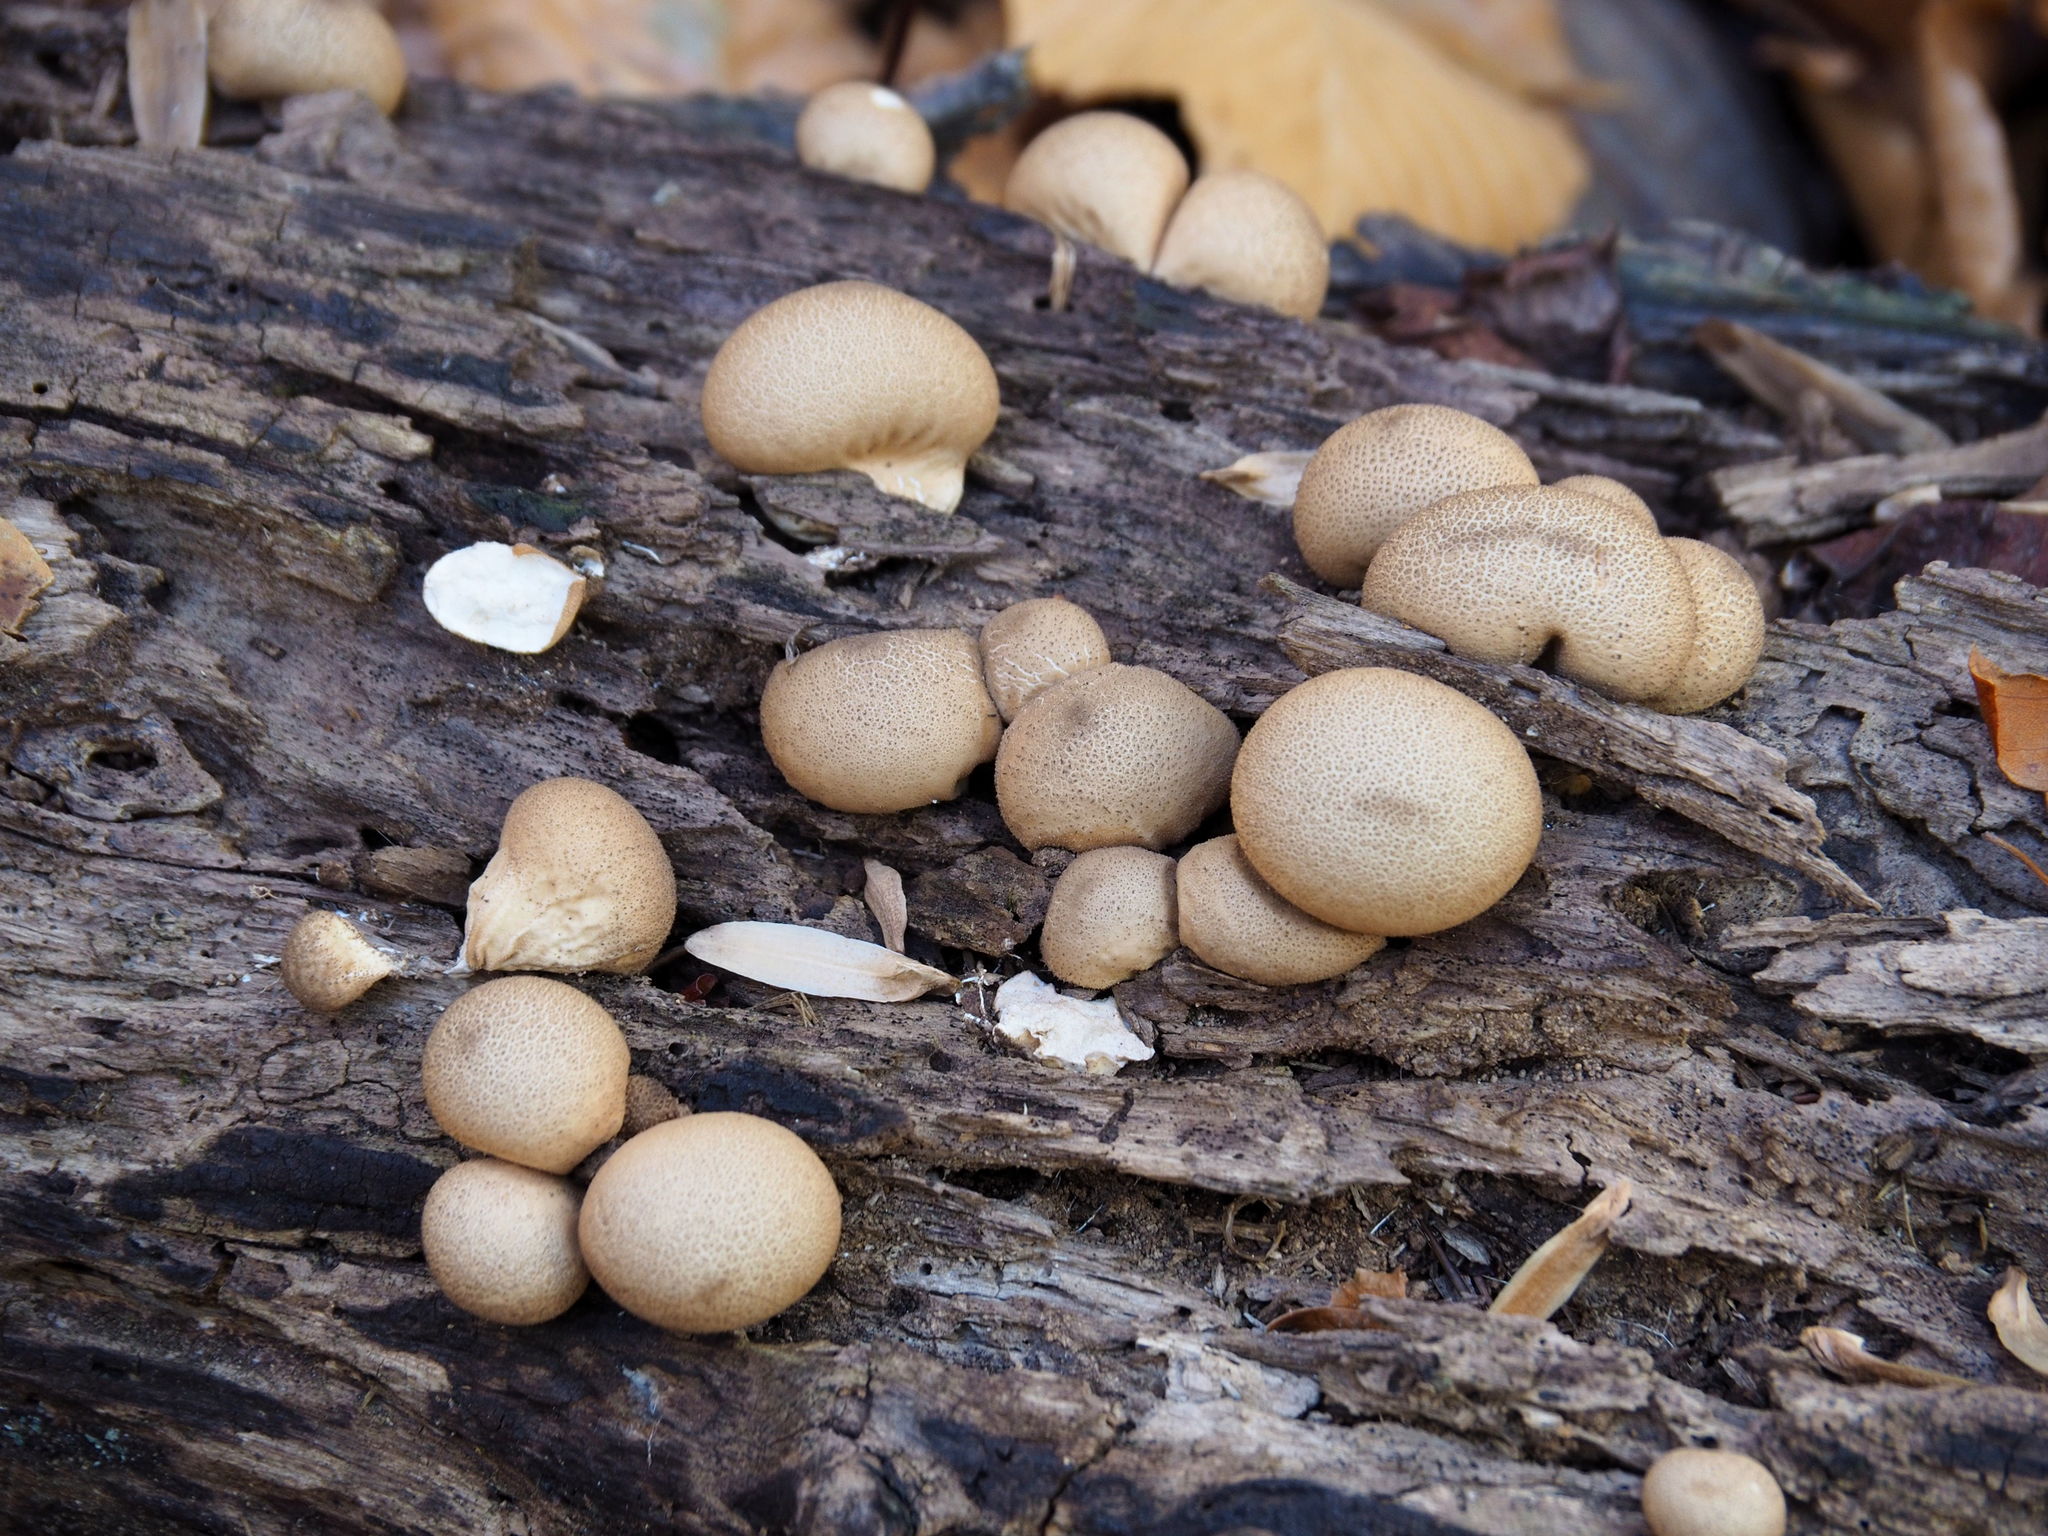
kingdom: Fungi
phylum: Basidiomycota
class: Agaricomycetes
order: Agaricales
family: Lycoperdaceae
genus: Apioperdon
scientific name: Apioperdon pyriforme
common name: Pear-shaped puffball
